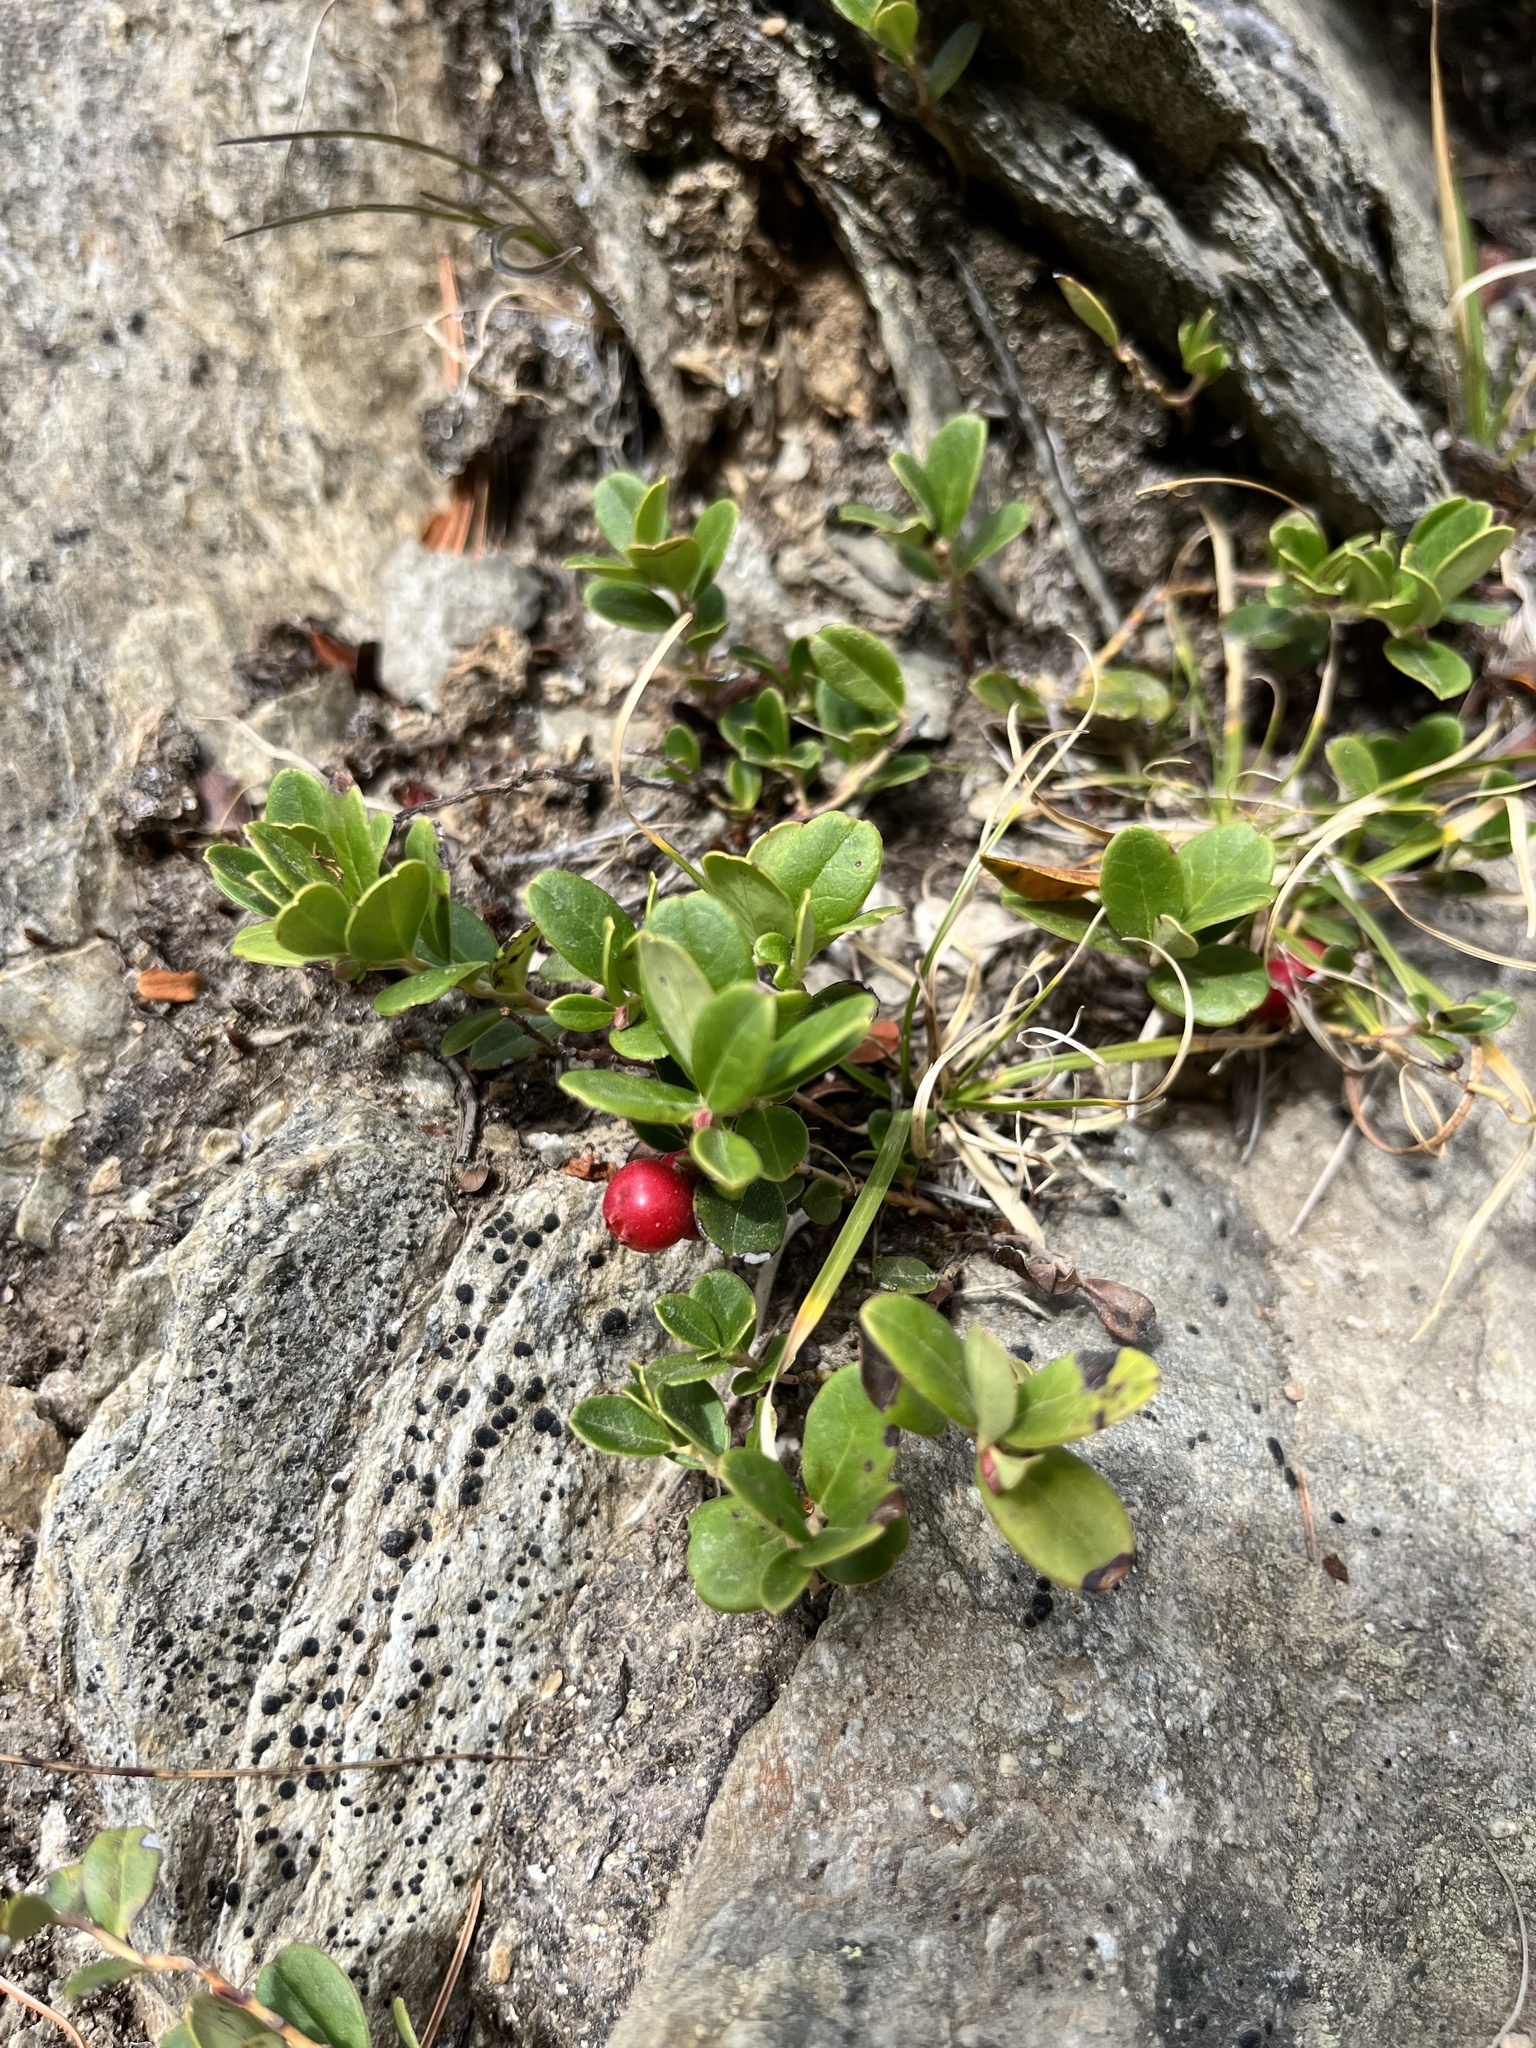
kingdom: Plantae
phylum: Tracheophyta
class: Magnoliopsida
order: Ericales
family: Ericaceae
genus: Vaccinium
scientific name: Vaccinium vitis-idaea
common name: Cowberry
